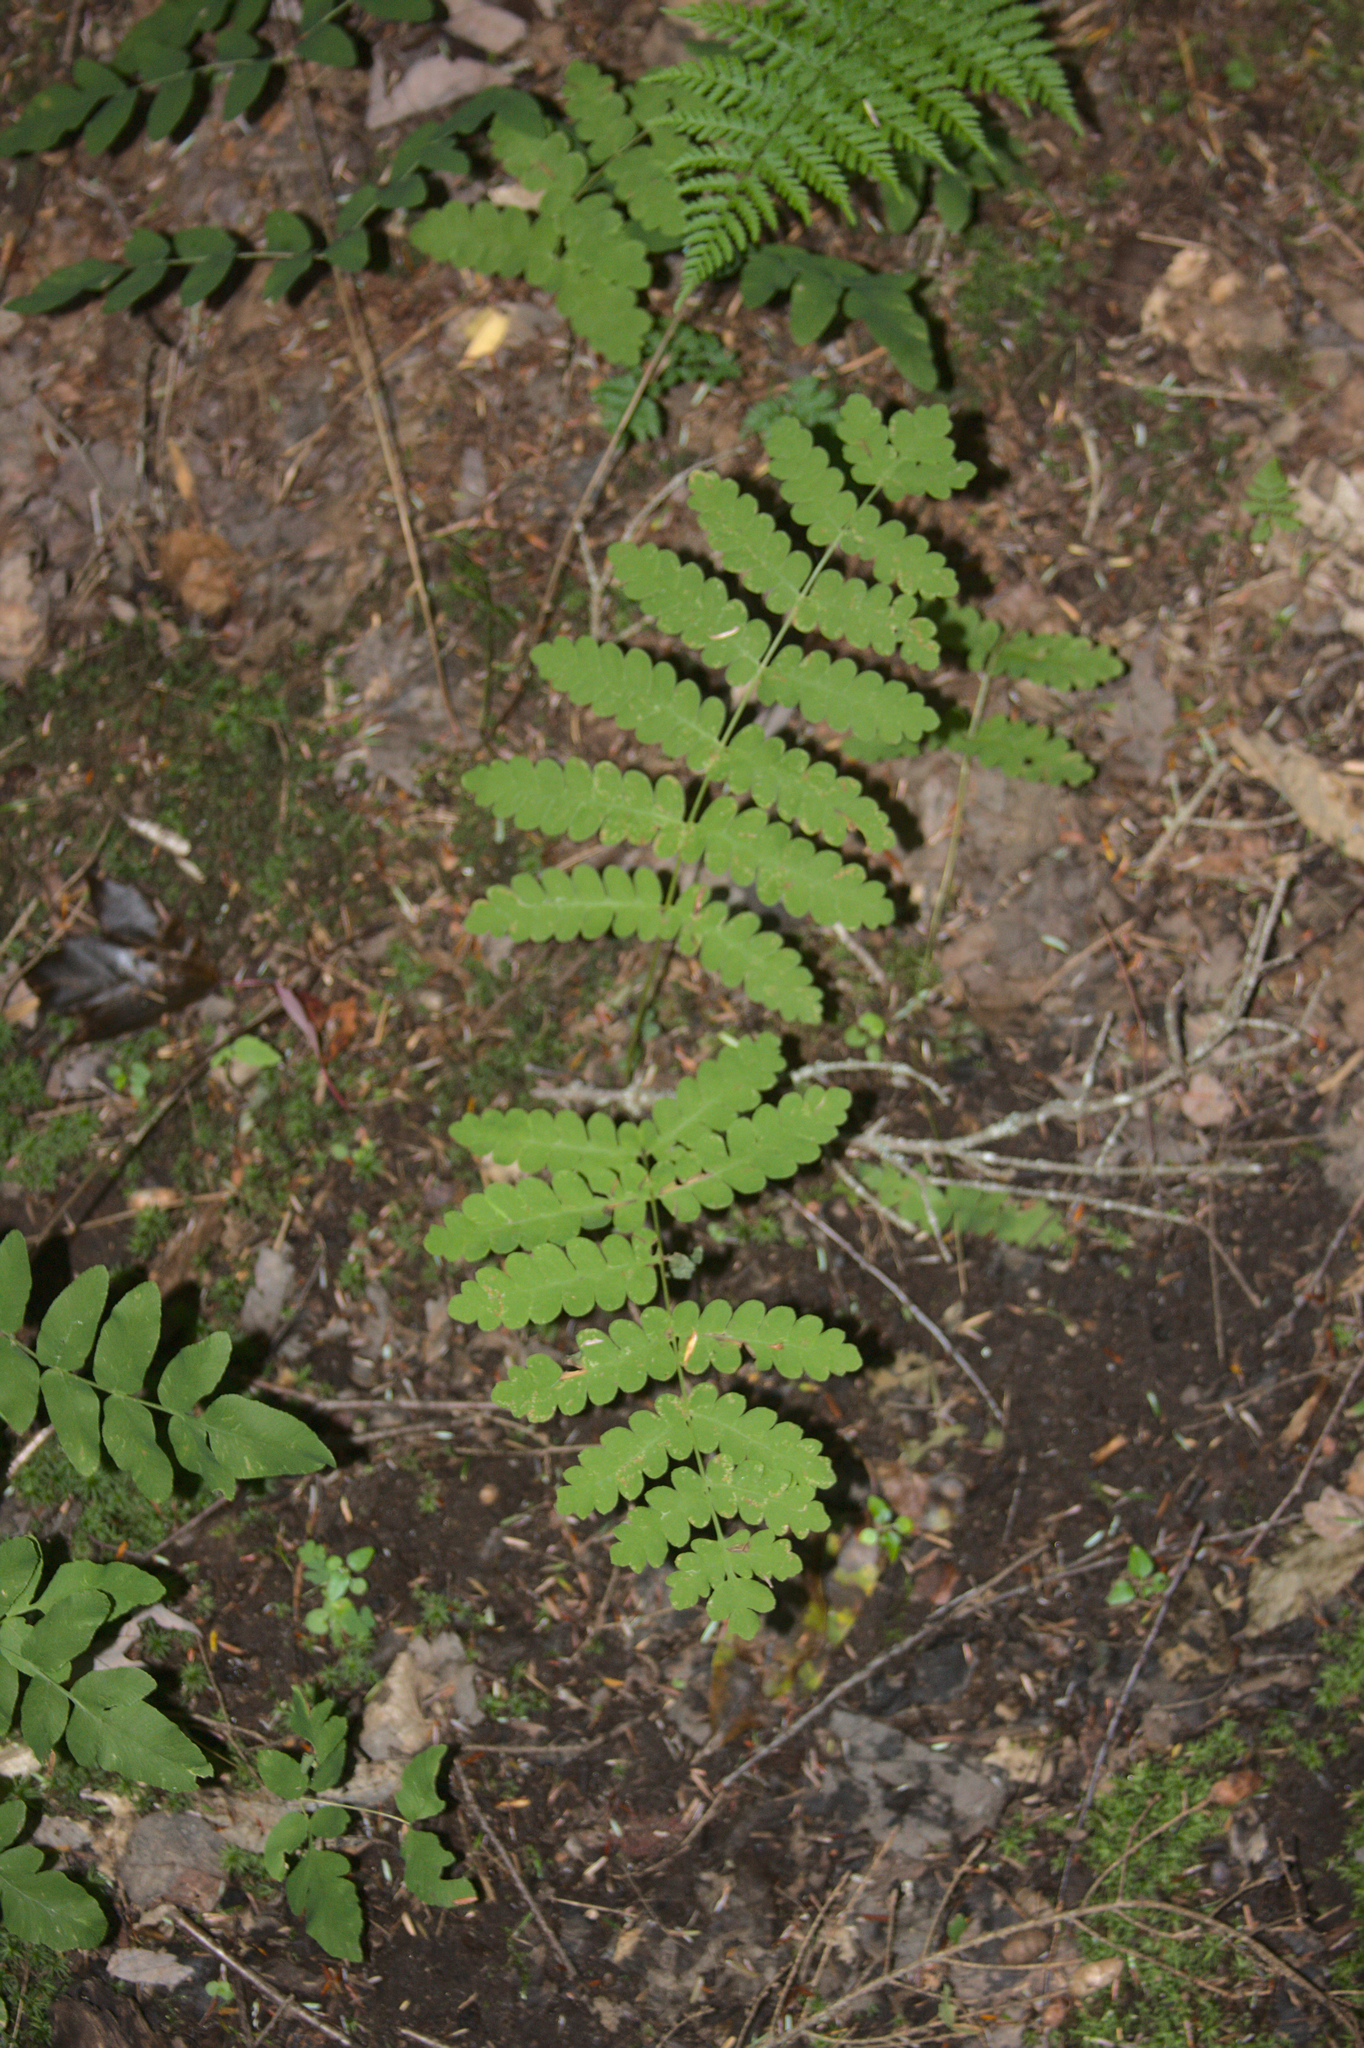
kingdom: Plantae
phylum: Tracheophyta
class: Polypodiopsida
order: Osmundales
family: Osmundaceae
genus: Claytosmunda
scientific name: Claytosmunda claytoniana
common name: Clayton's fern
